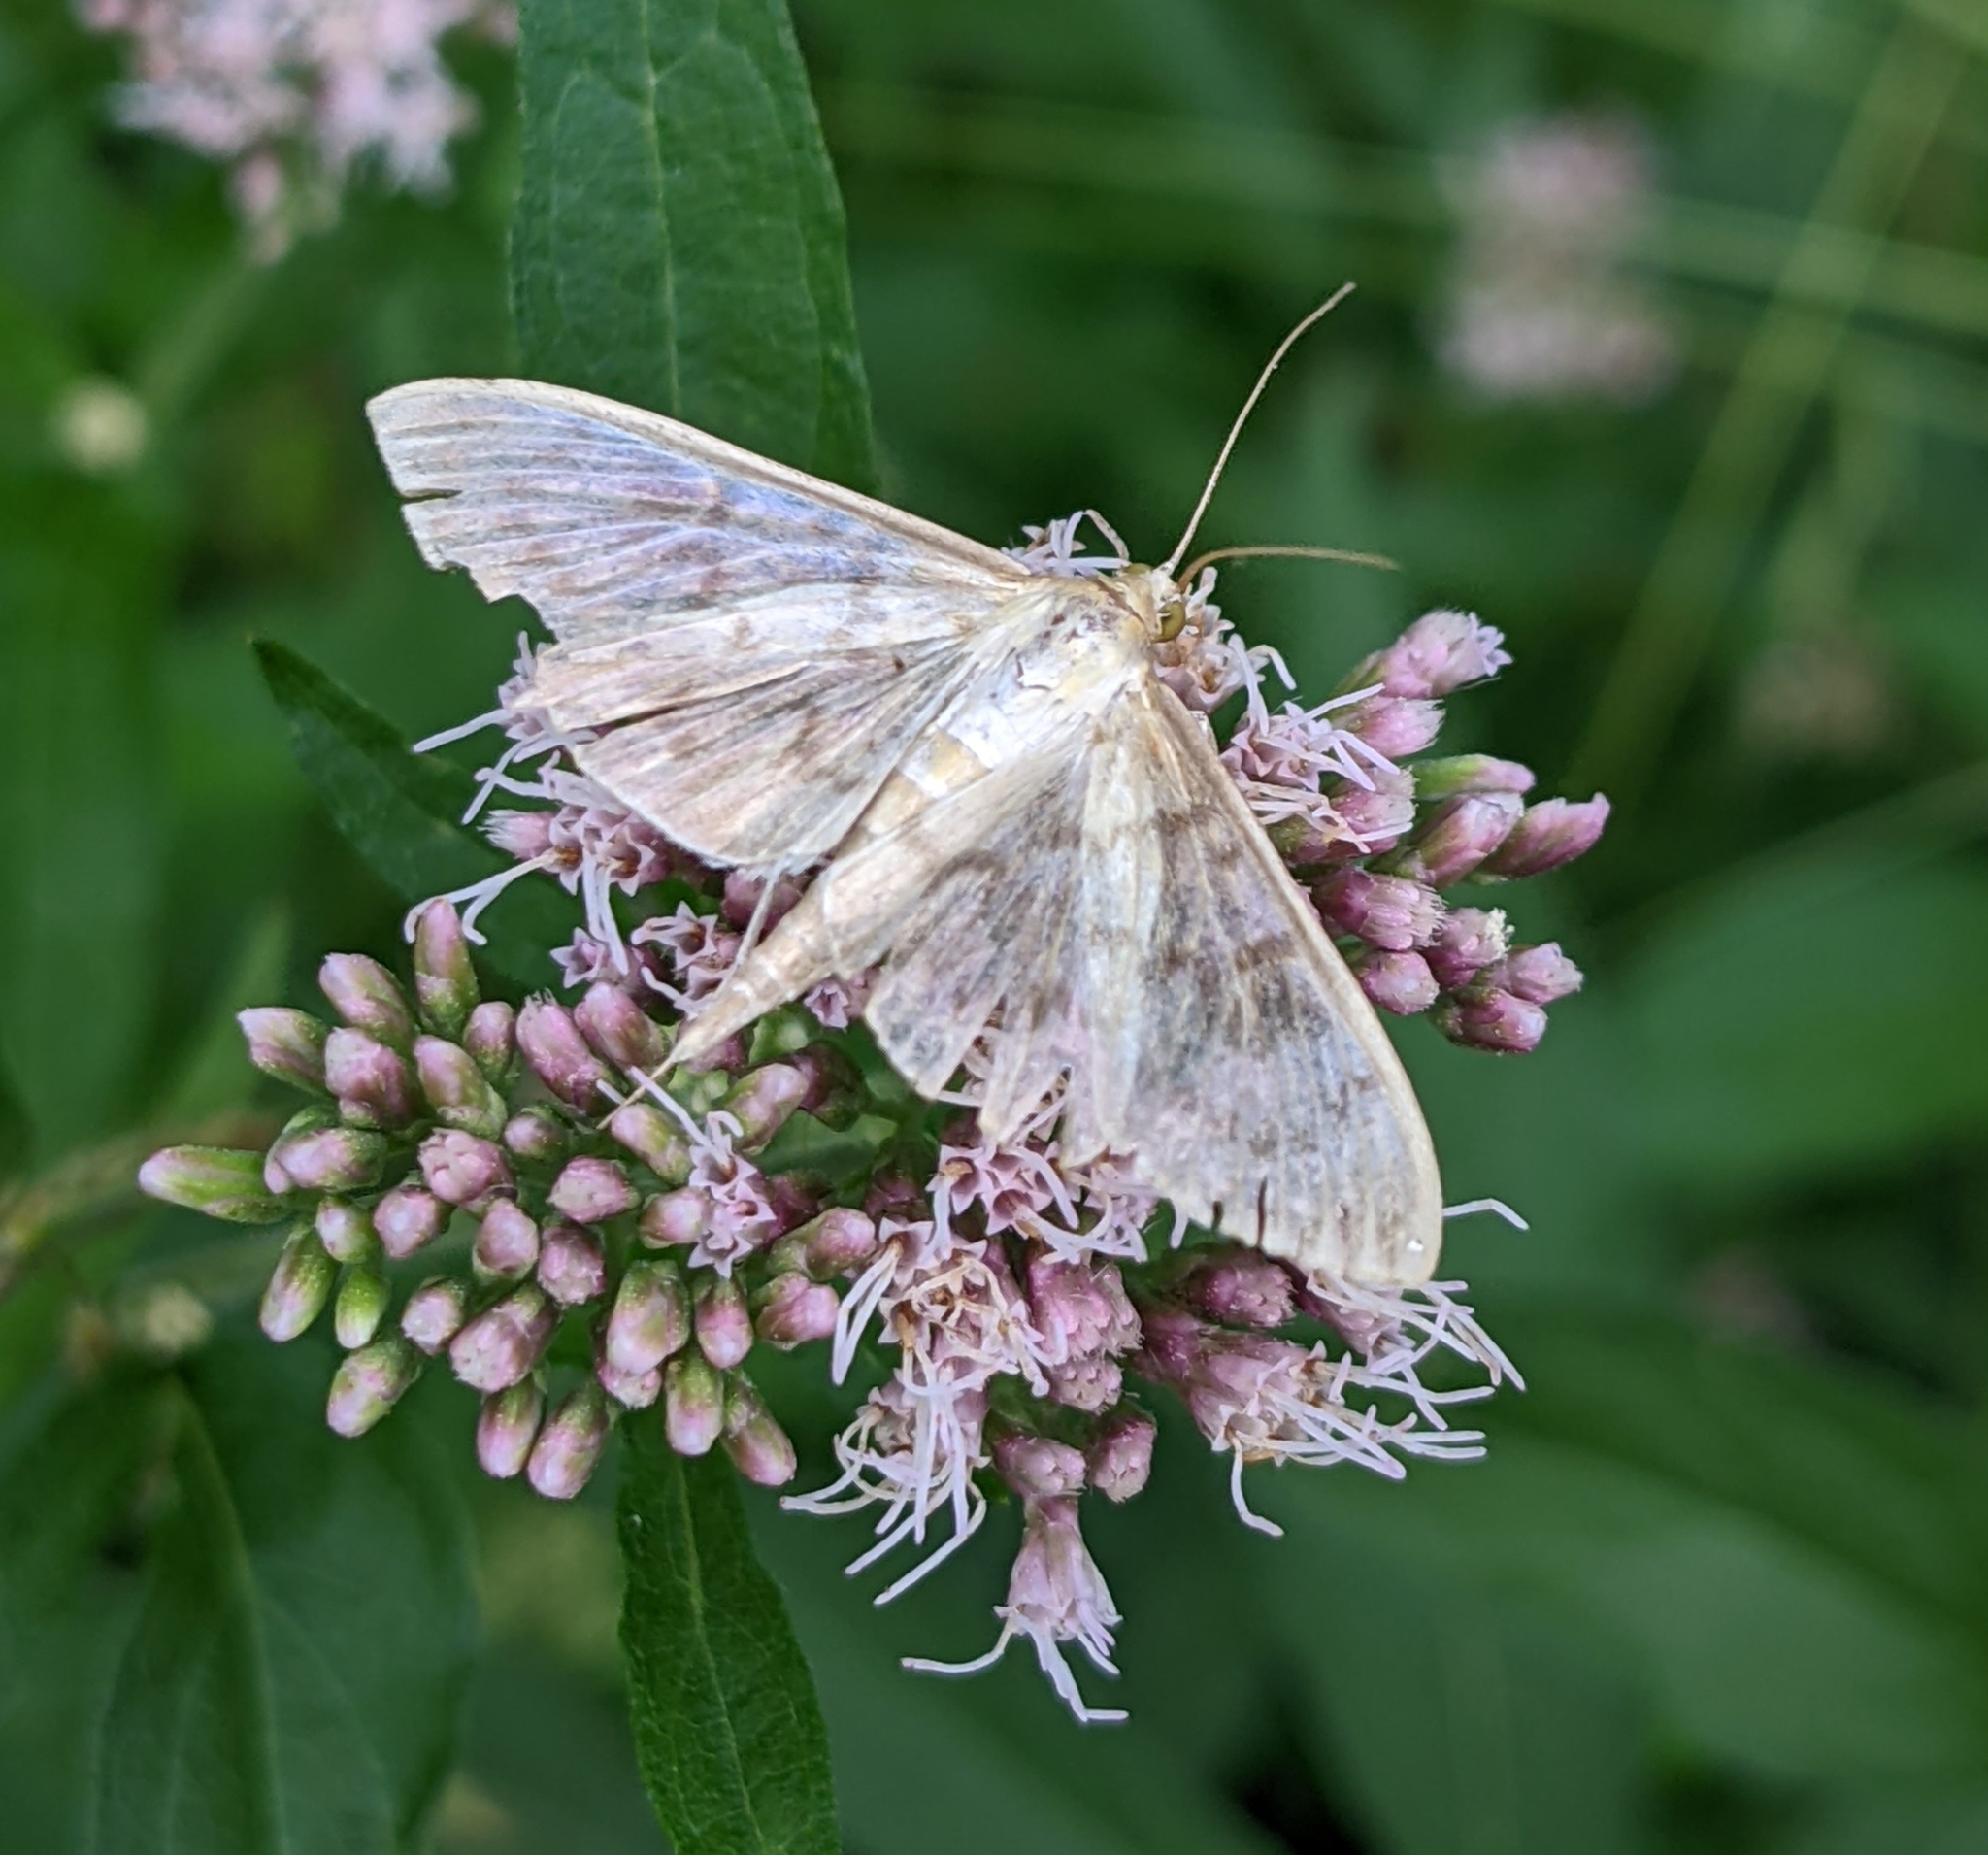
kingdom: Animalia
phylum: Arthropoda
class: Insecta
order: Lepidoptera
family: Crambidae
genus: Patania
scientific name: Patania ruralis
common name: Mother of pearl
